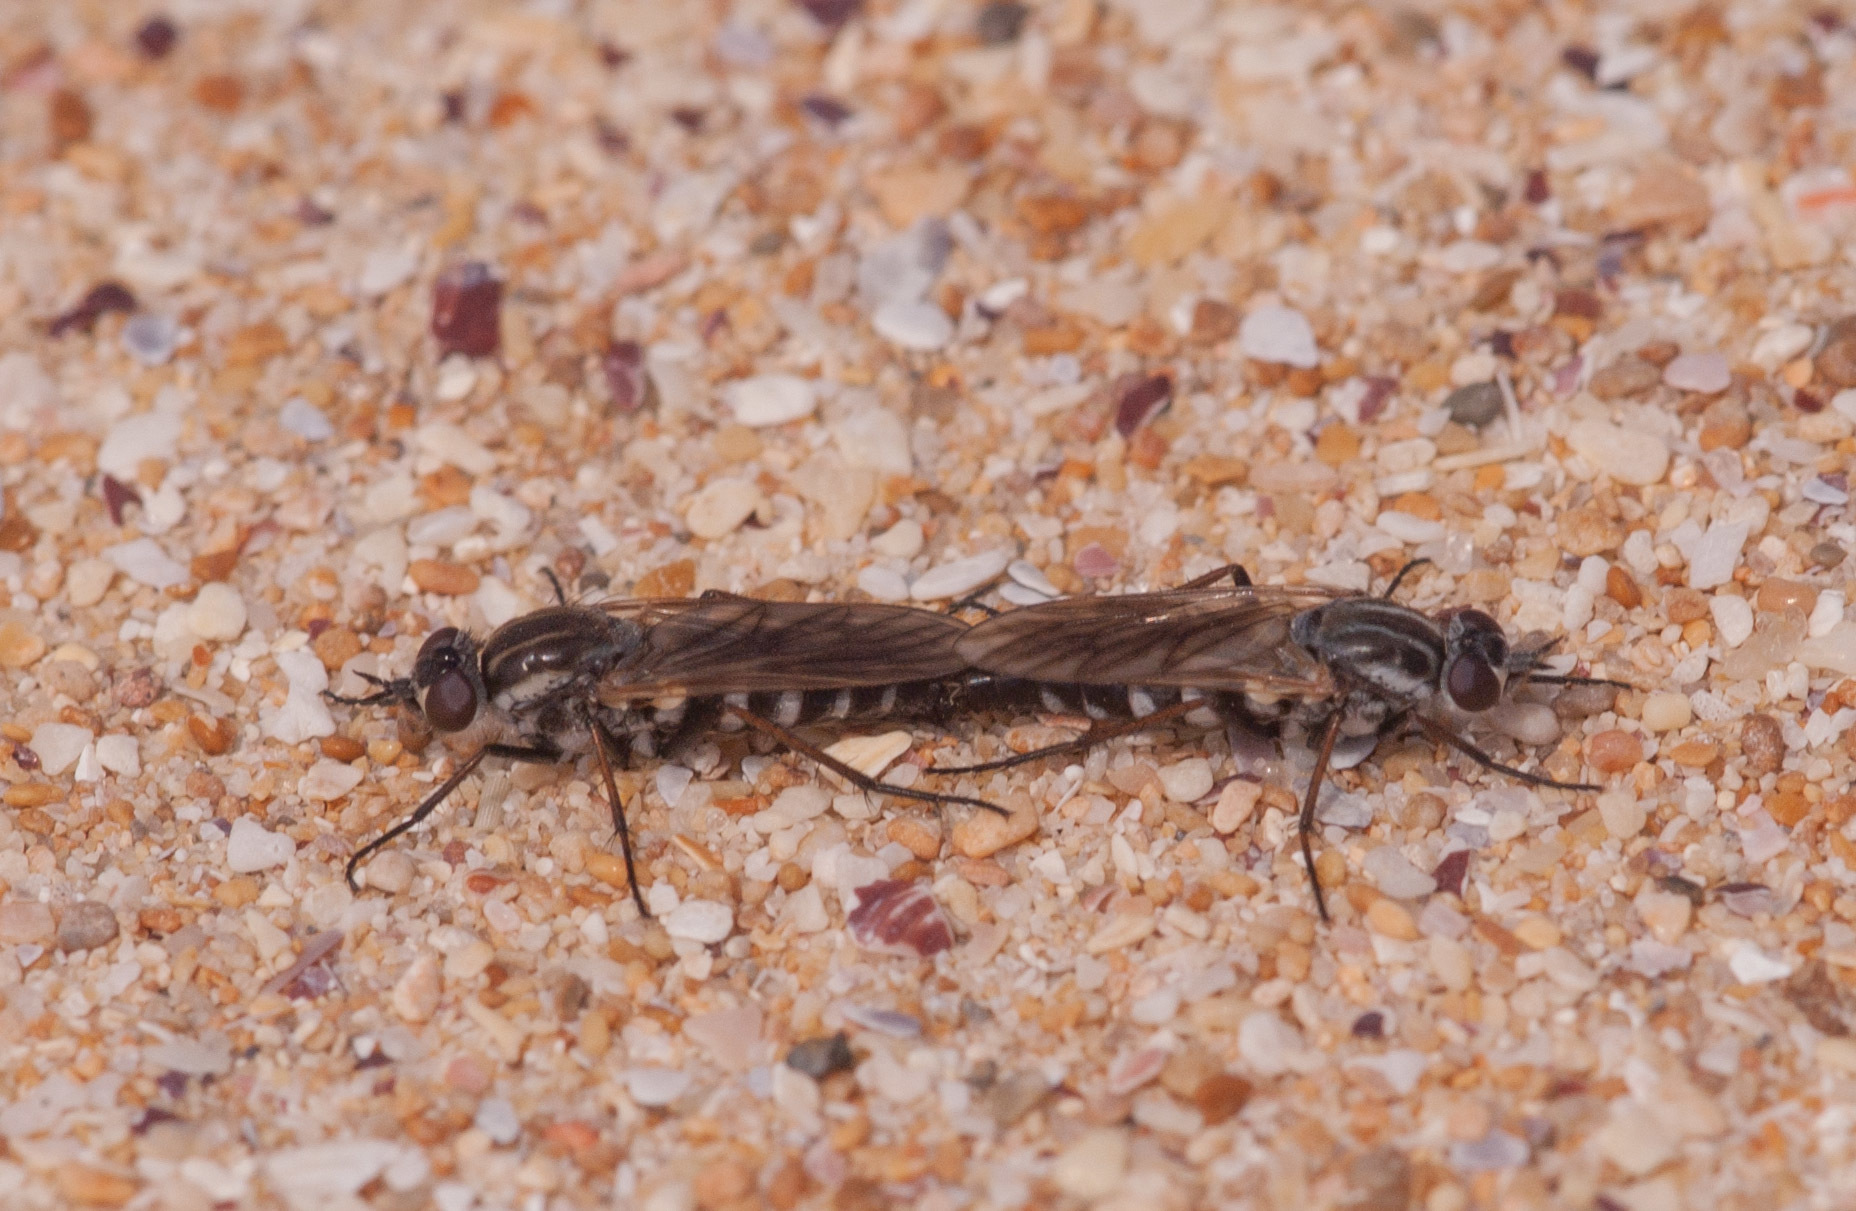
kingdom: Animalia
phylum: Arthropoda
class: Insecta
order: Diptera
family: Therevidae
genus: Anabarhynchus
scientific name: Anabarhynchus hyalipennis
